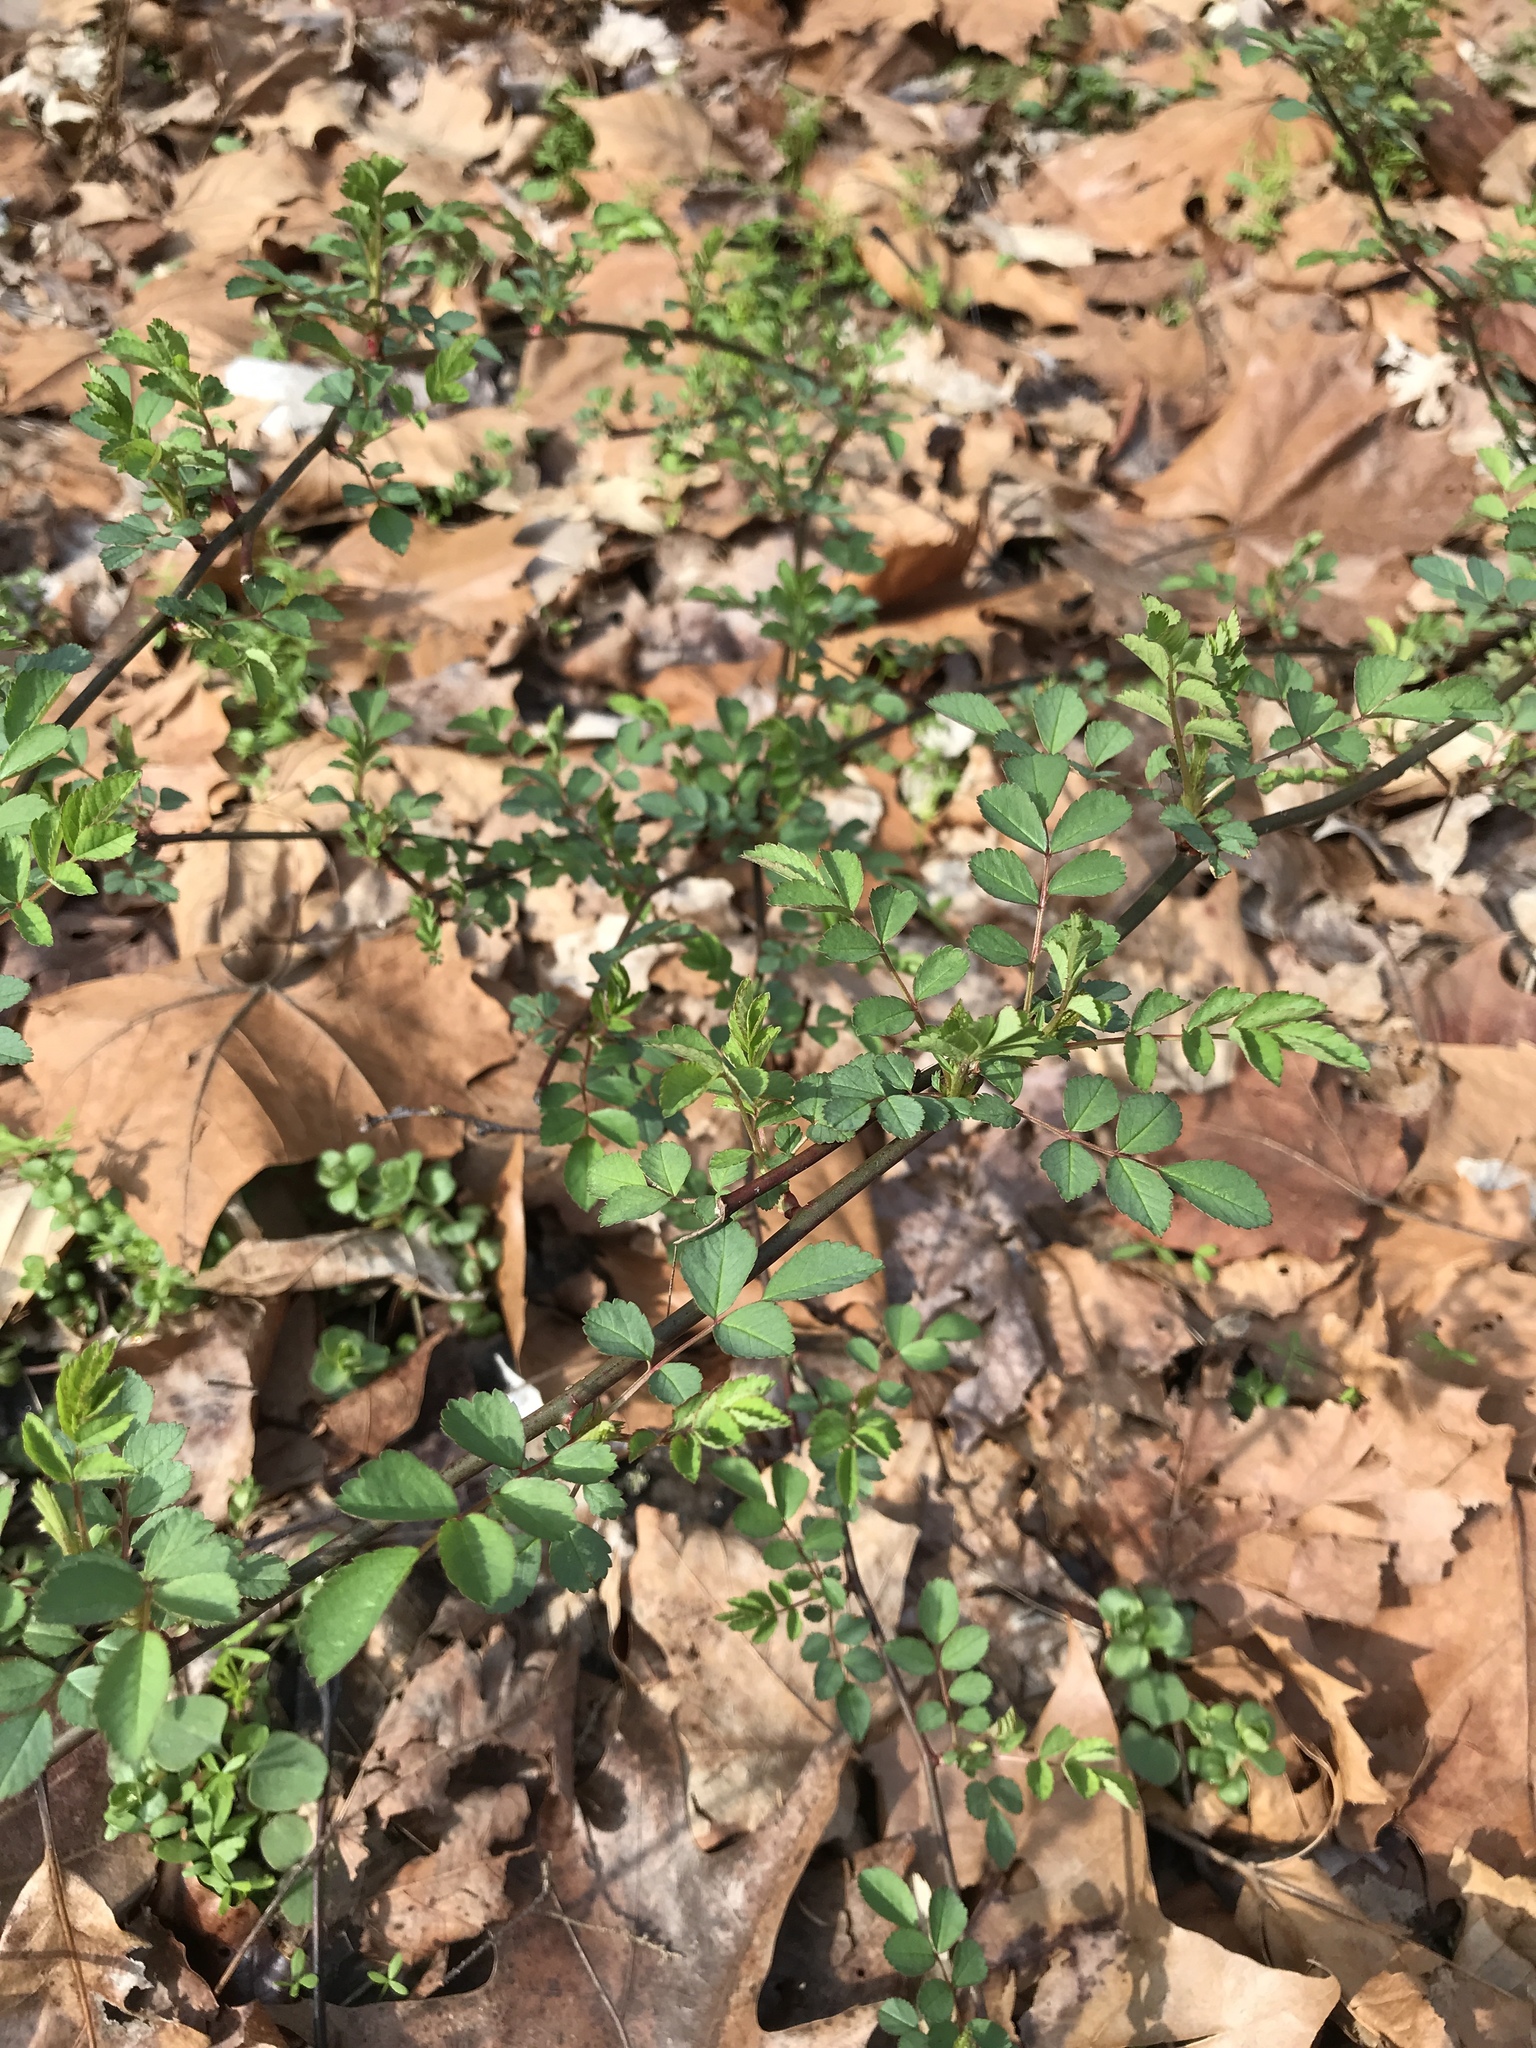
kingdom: Plantae
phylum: Tracheophyta
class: Magnoliopsida
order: Rosales
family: Rosaceae
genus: Rosa
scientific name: Rosa multiflora
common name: Multiflora rose
